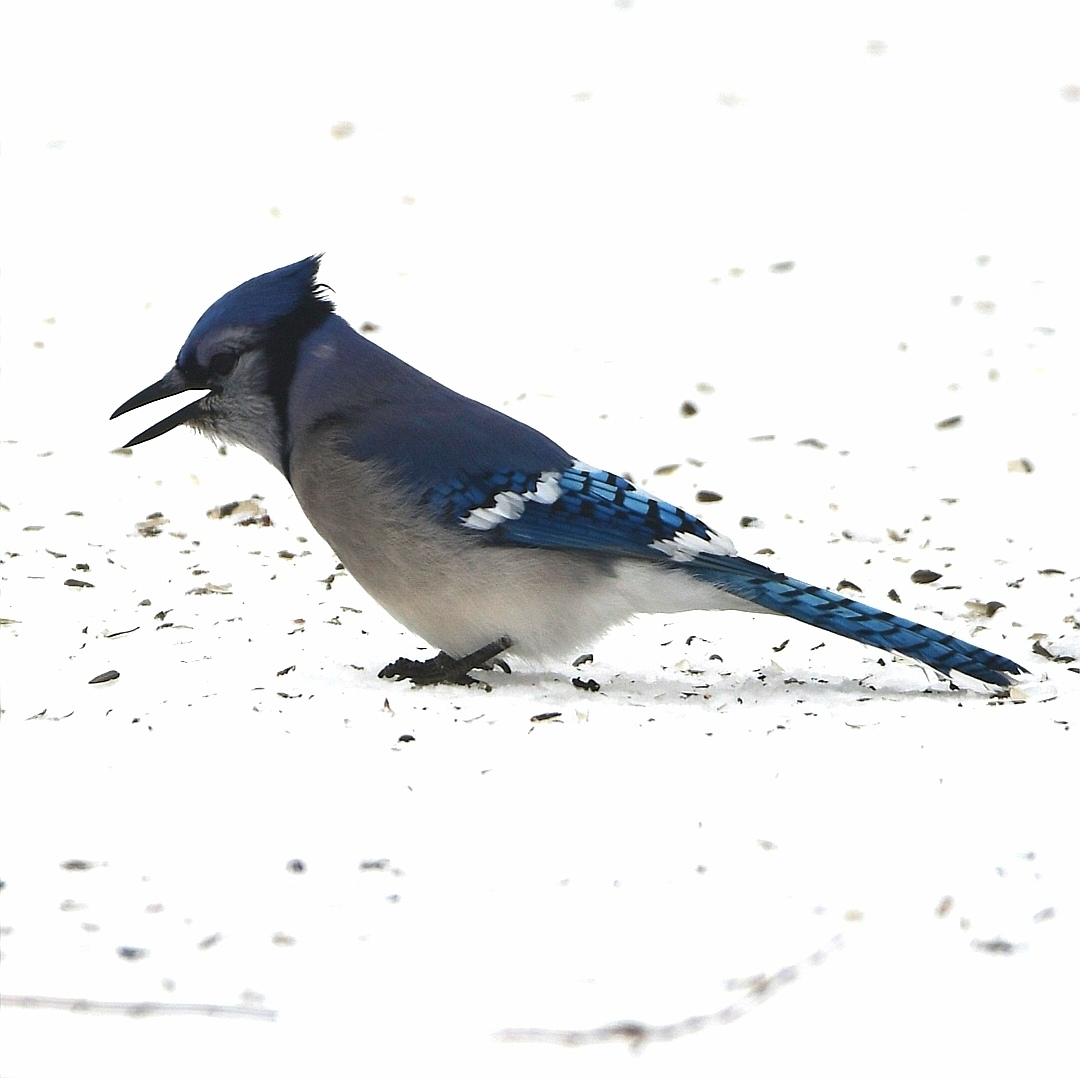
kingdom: Animalia
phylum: Chordata
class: Aves
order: Passeriformes
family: Corvidae
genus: Cyanocitta
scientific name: Cyanocitta cristata
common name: Blue jay
